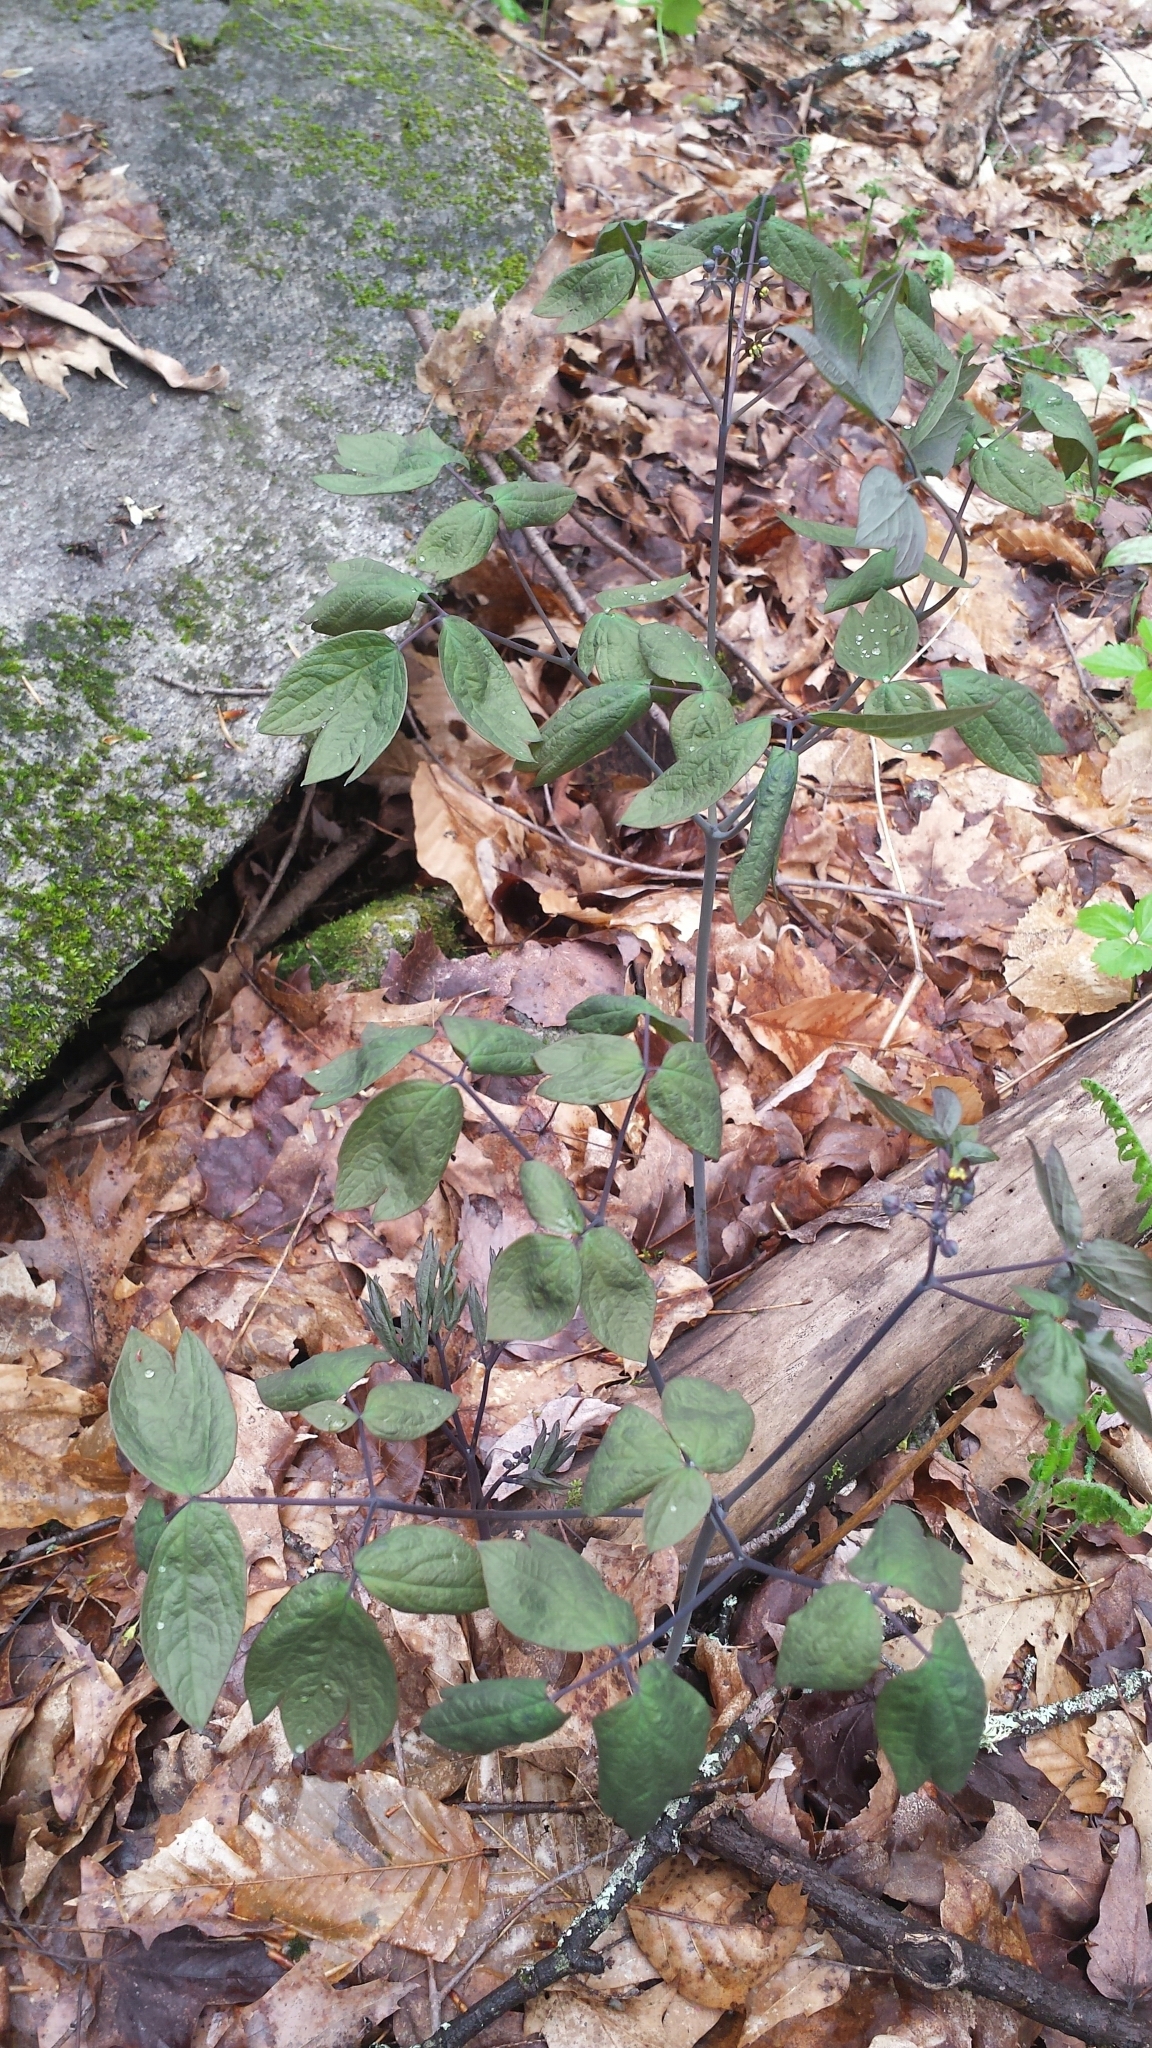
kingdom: Plantae
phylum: Tracheophyta
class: Magnoliopsida
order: Ranunculales
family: Berberidaceae
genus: Caulophyllum
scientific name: Caulophyllum giganteum
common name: Blue cohosh
